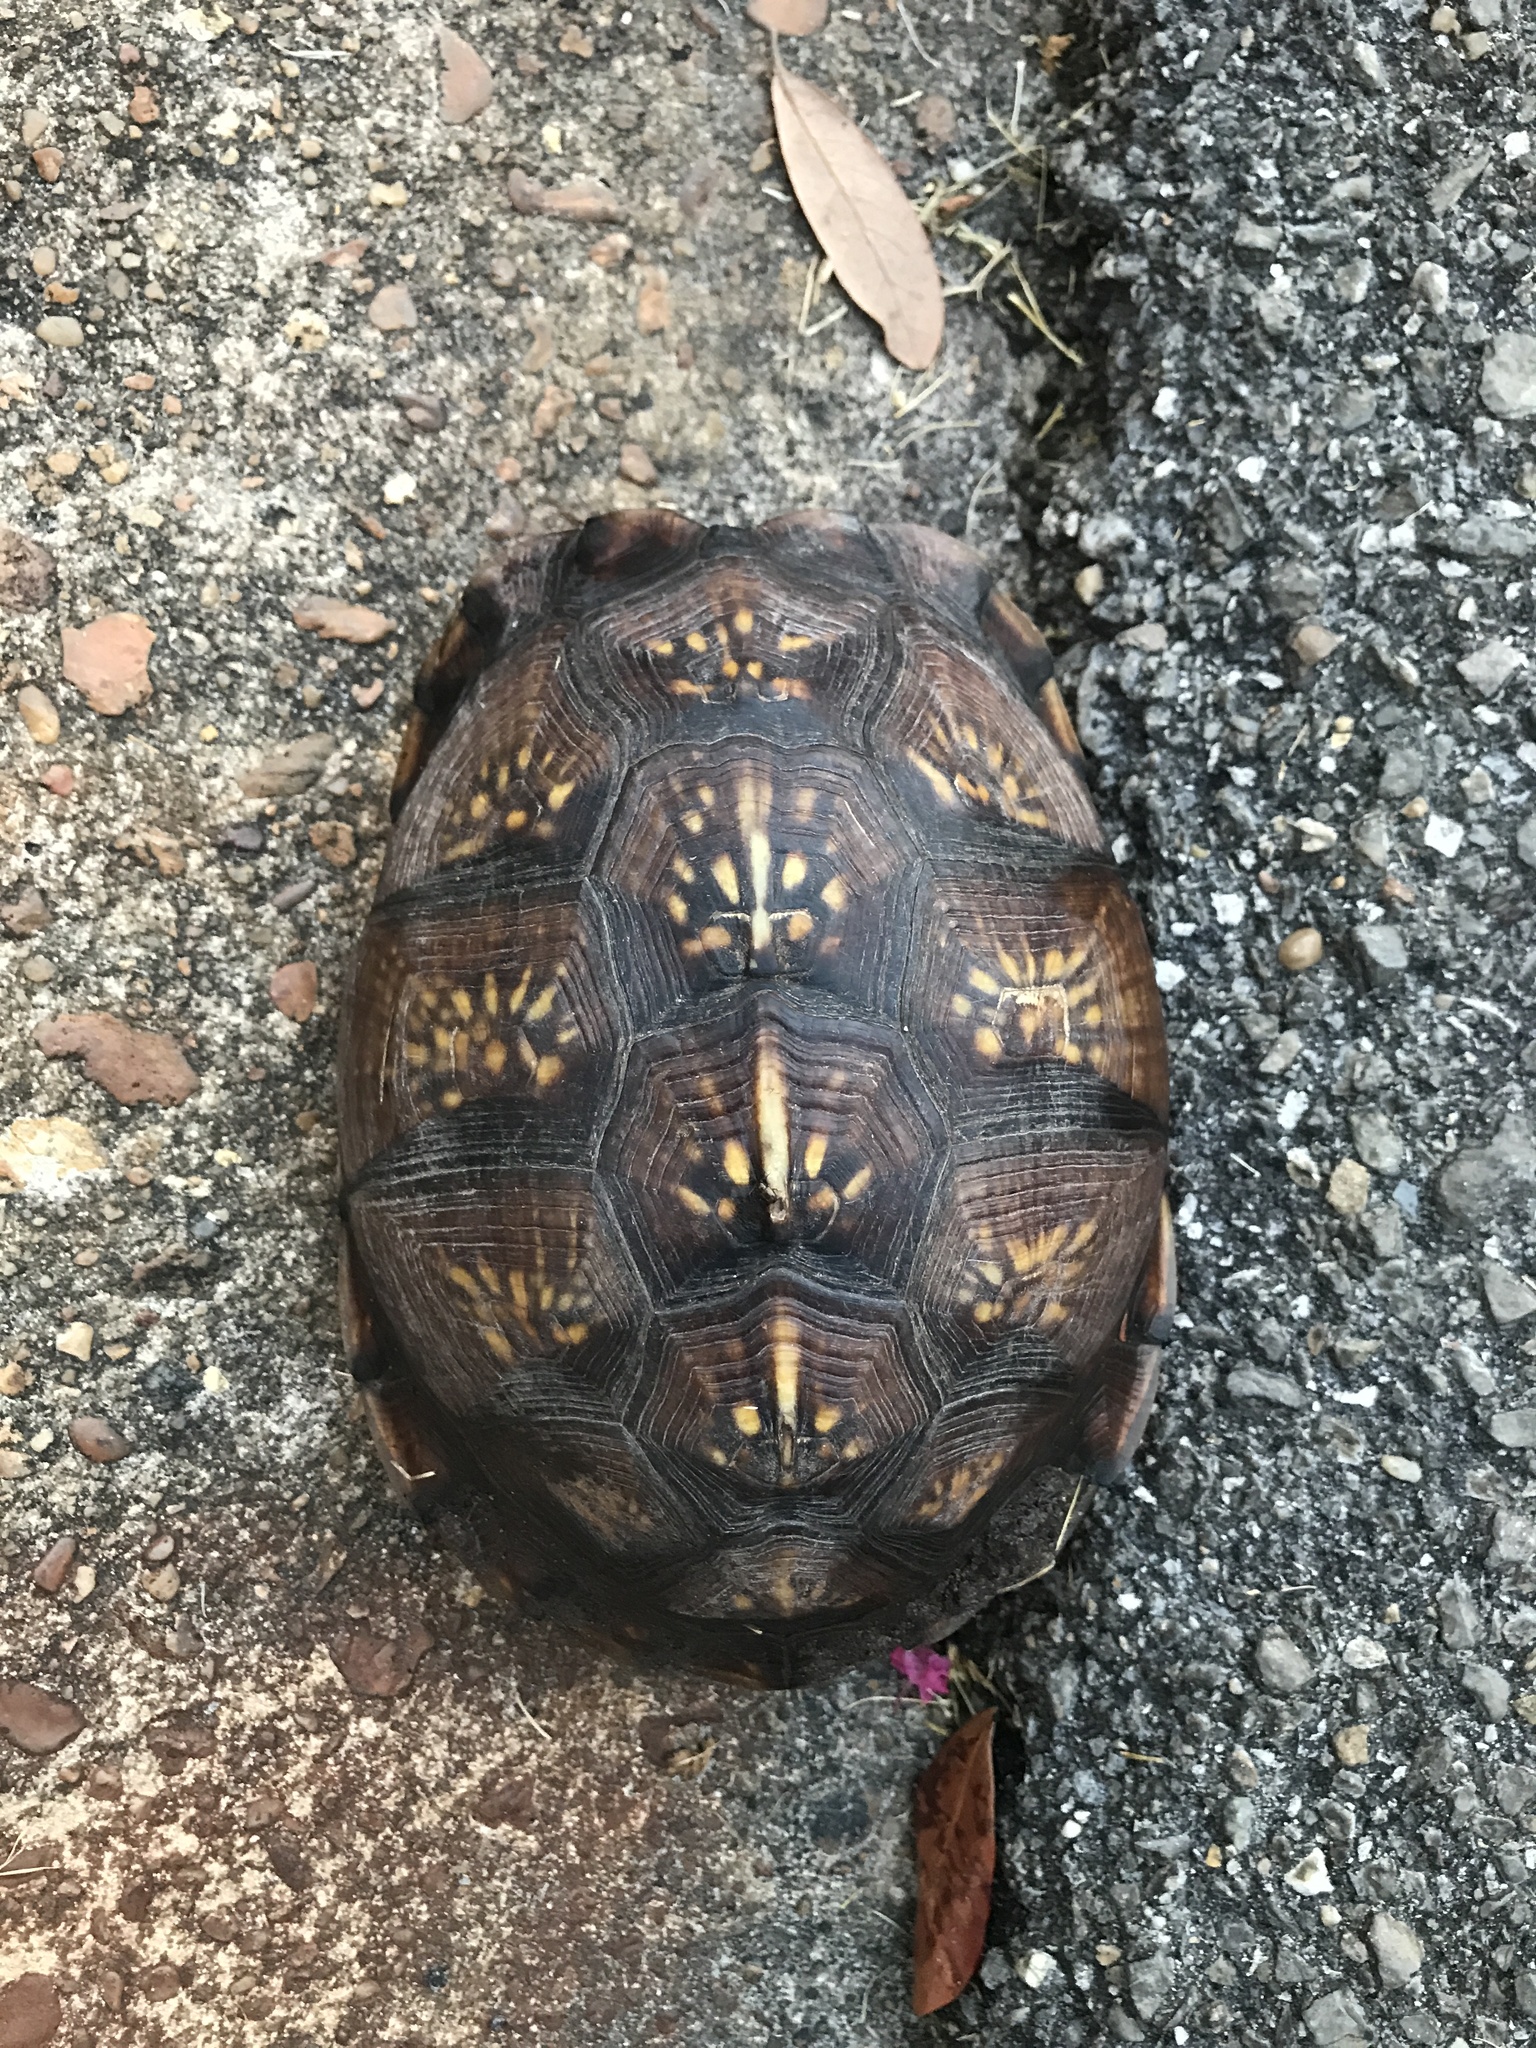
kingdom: Animalia
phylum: Chordata
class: Testudines
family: Emydidae
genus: Terrapene
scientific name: Terrapene carolina
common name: Common box turtle
